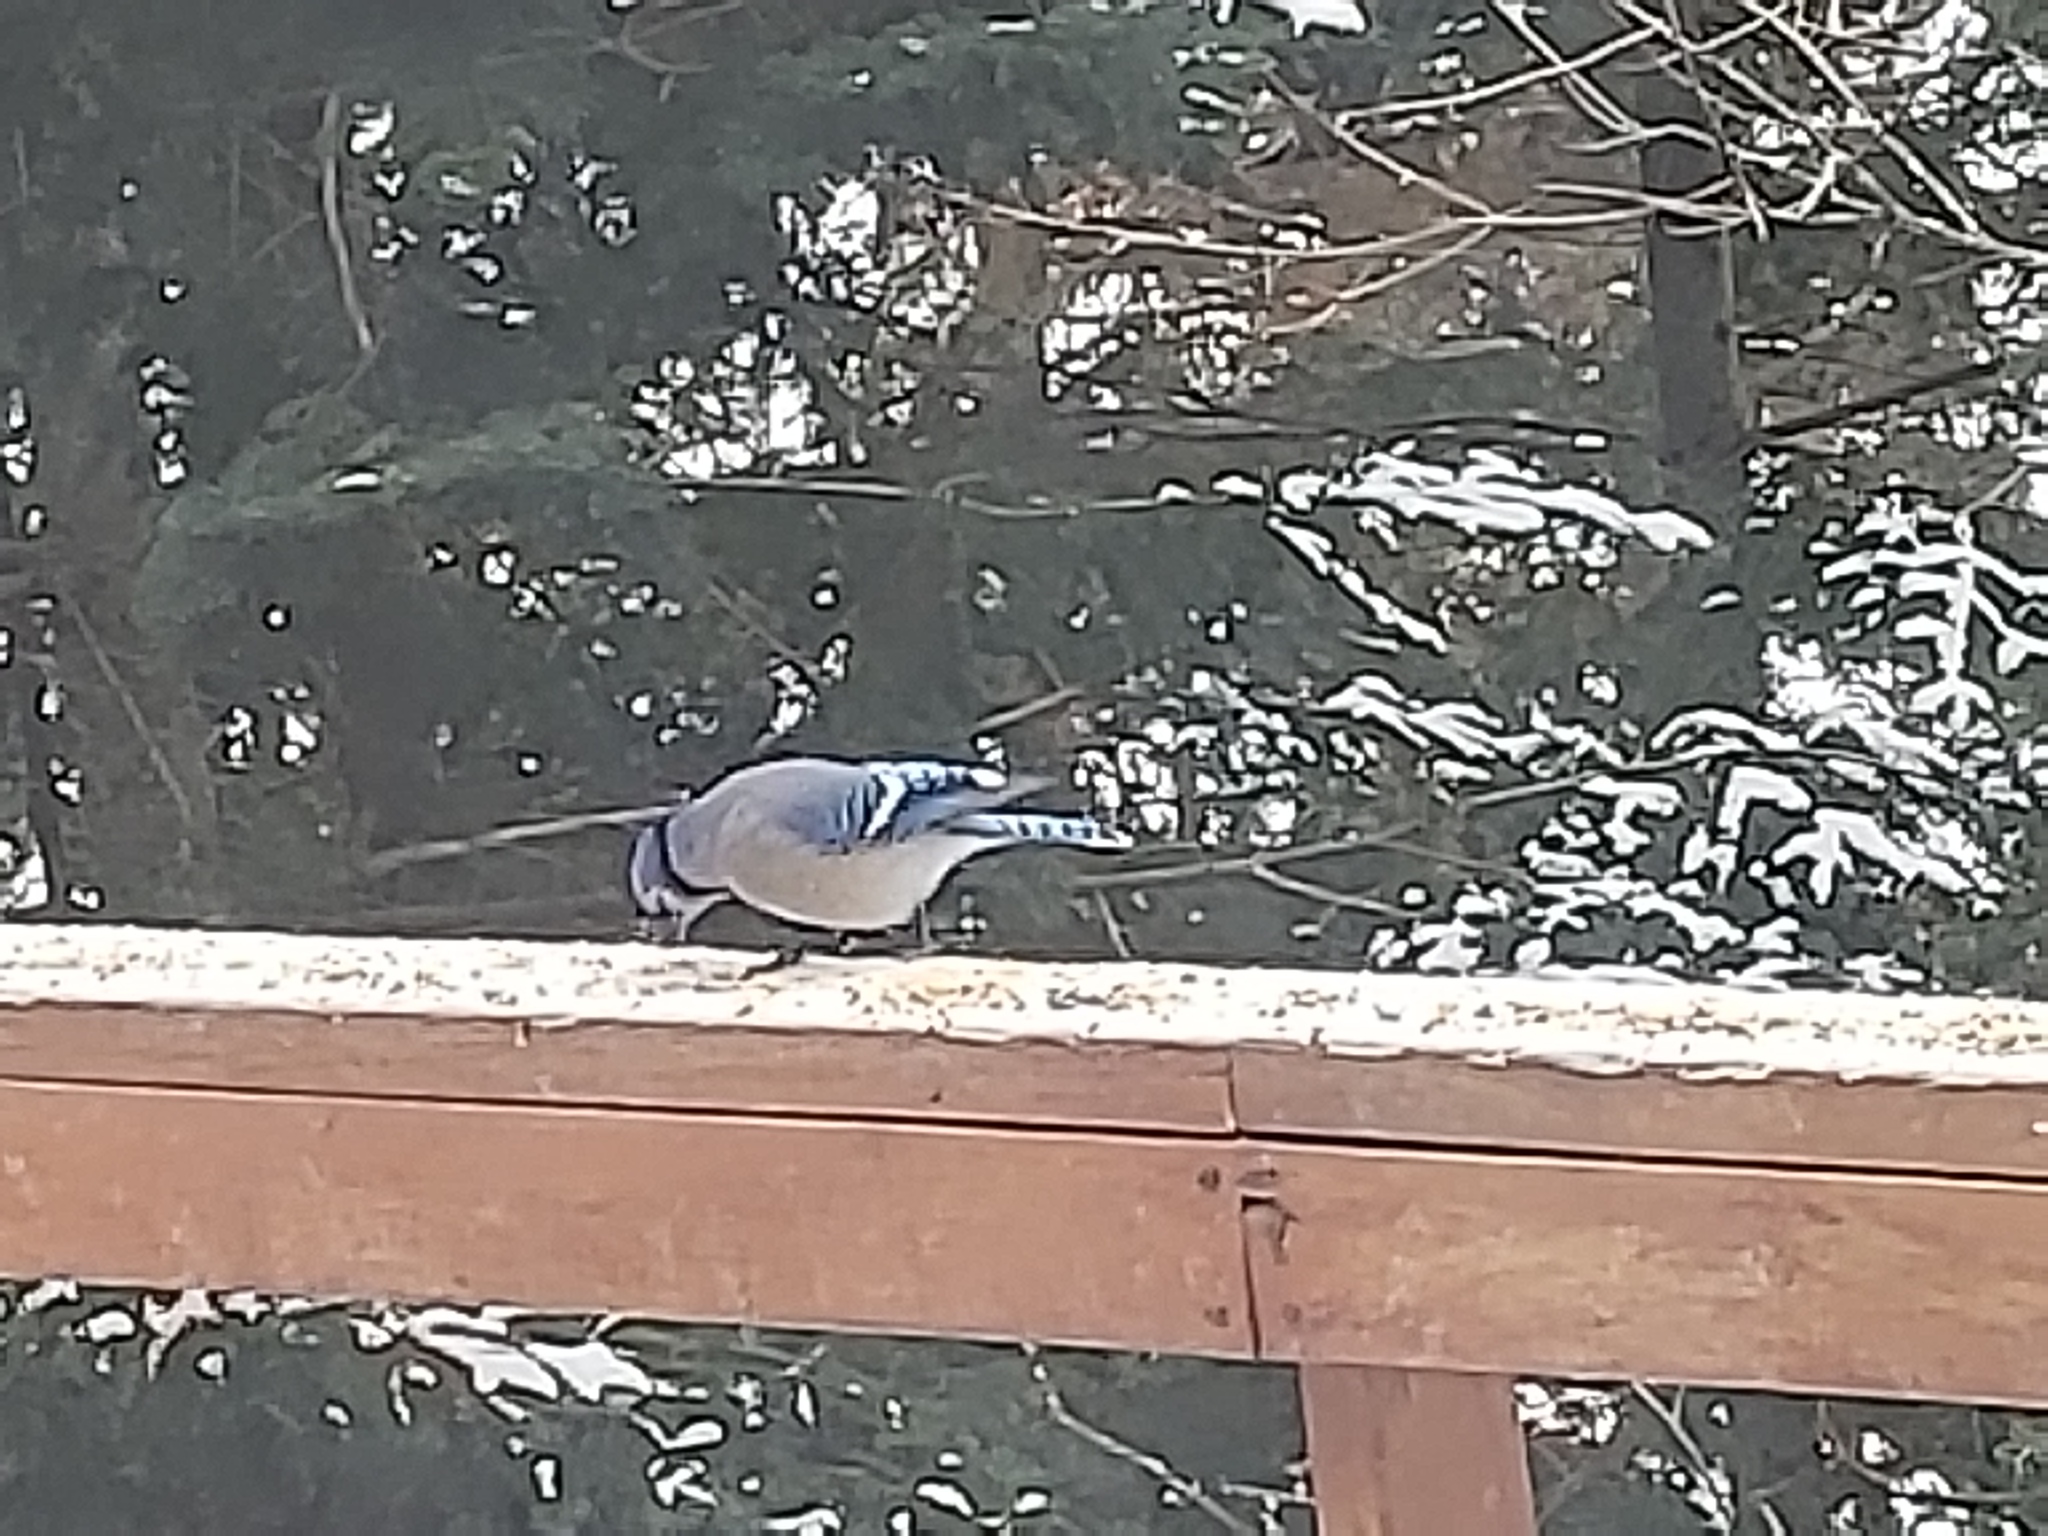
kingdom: Animalia
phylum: Chordata
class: Aves
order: Passeriformes
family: Corvidae
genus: Cyanocitta
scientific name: Cyanocitta cristata
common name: Blue jay
